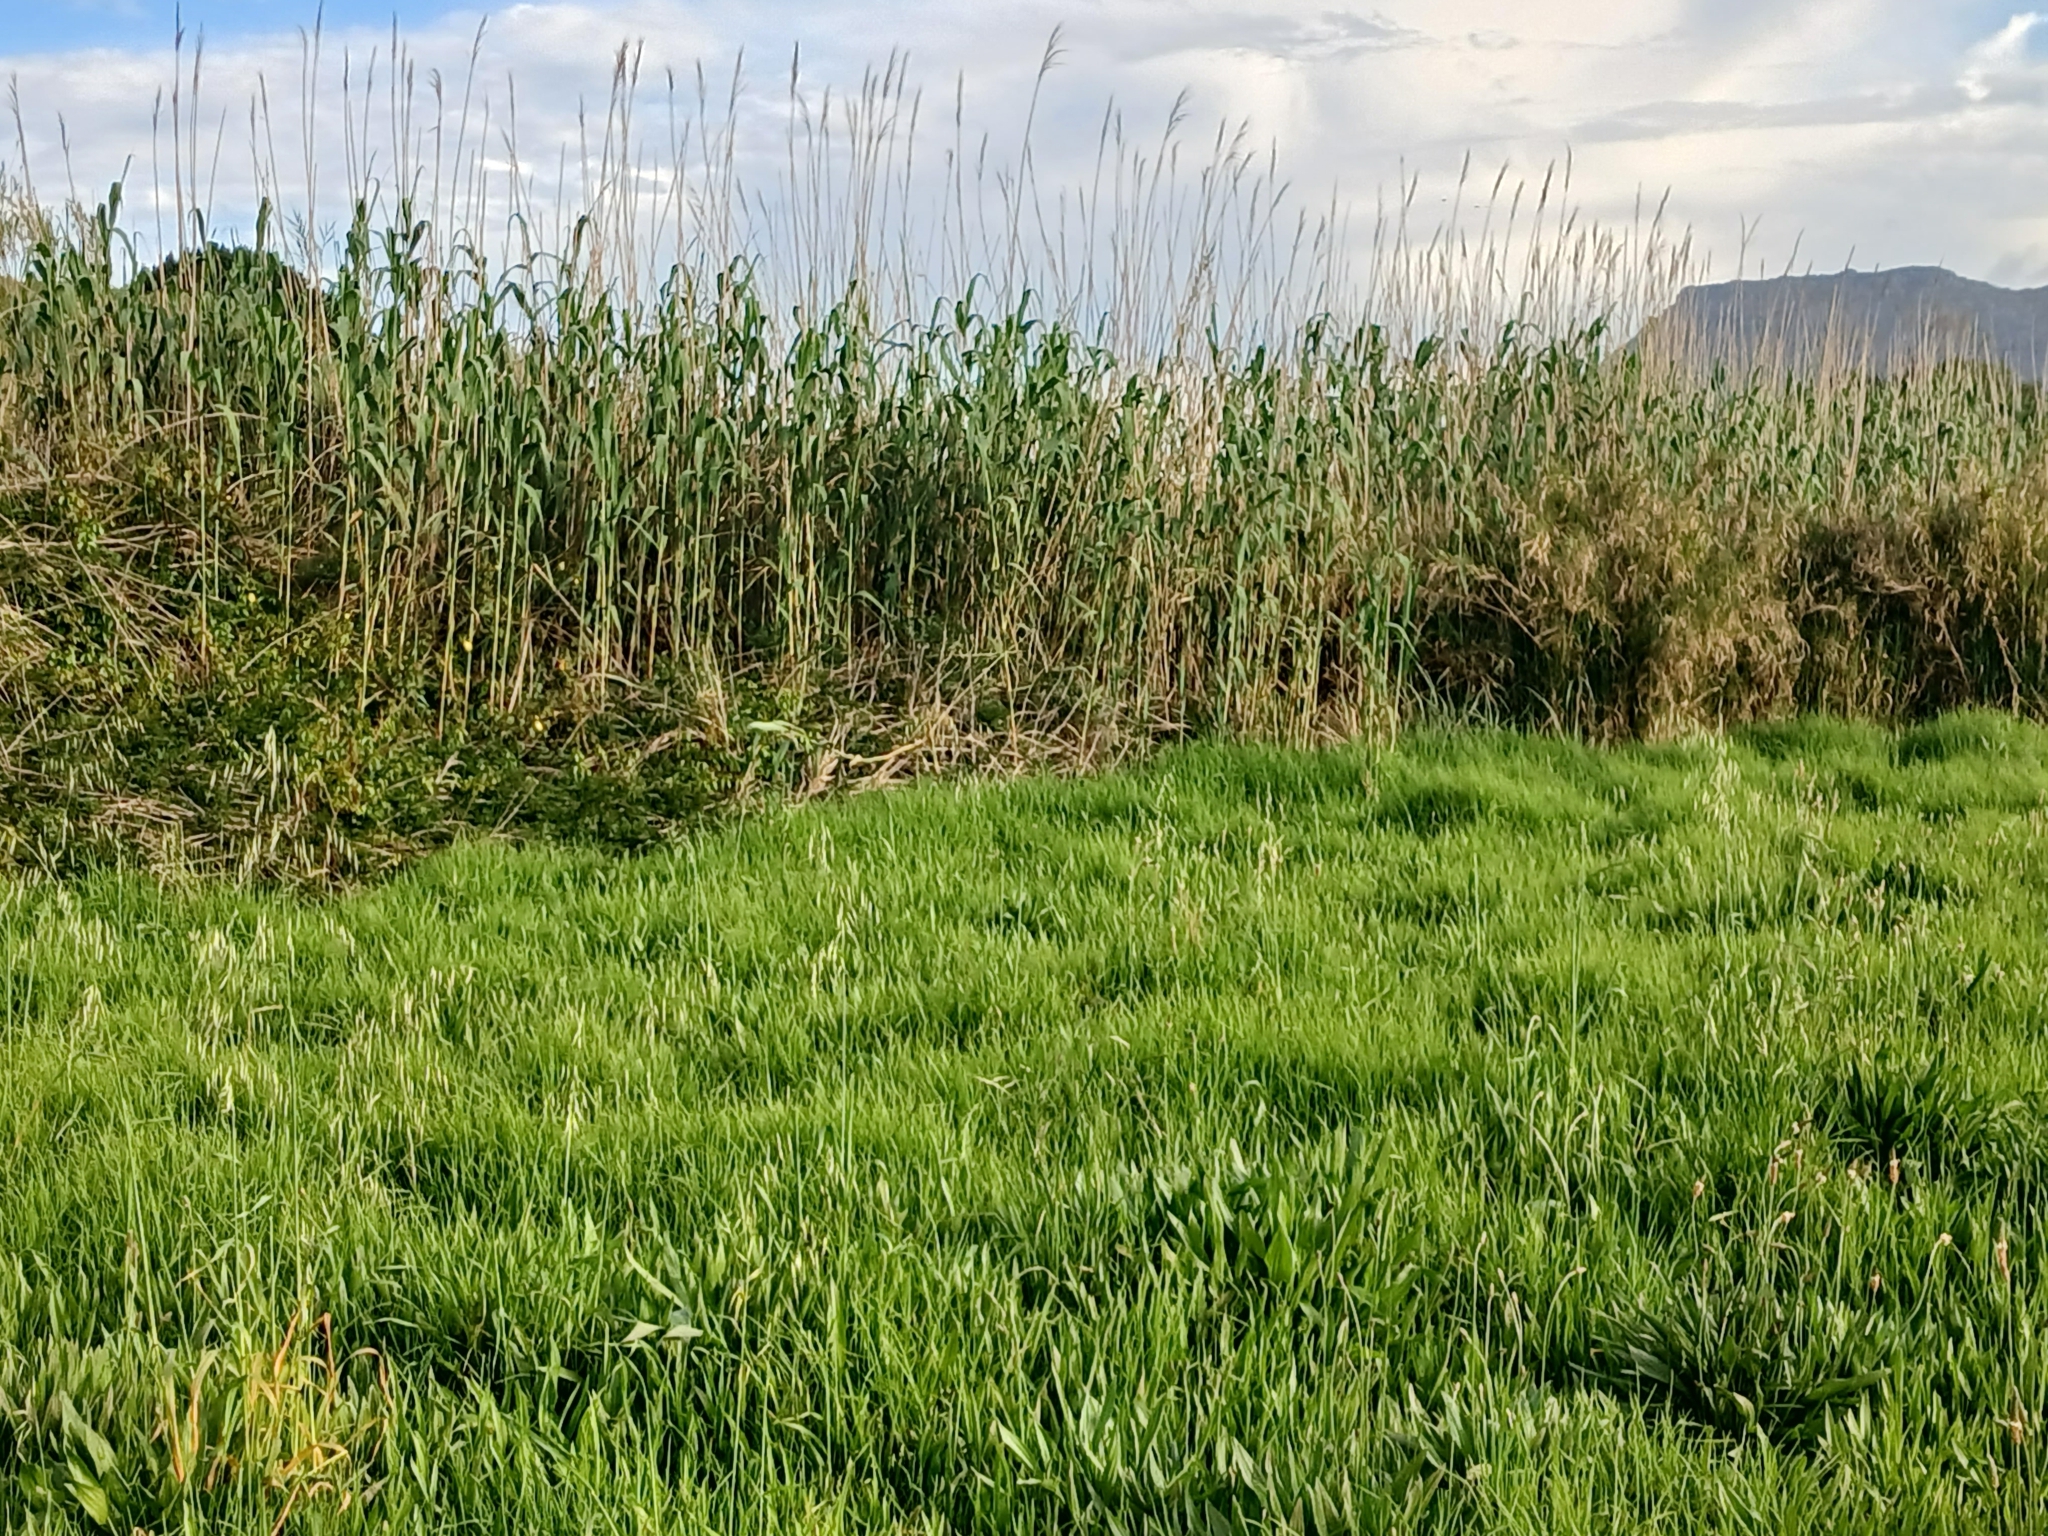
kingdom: Plantae
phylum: Tracheophyta
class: Liliopsida
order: Poales
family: Poaceae
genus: Arundo
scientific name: Arundo donax
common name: Giant reed
